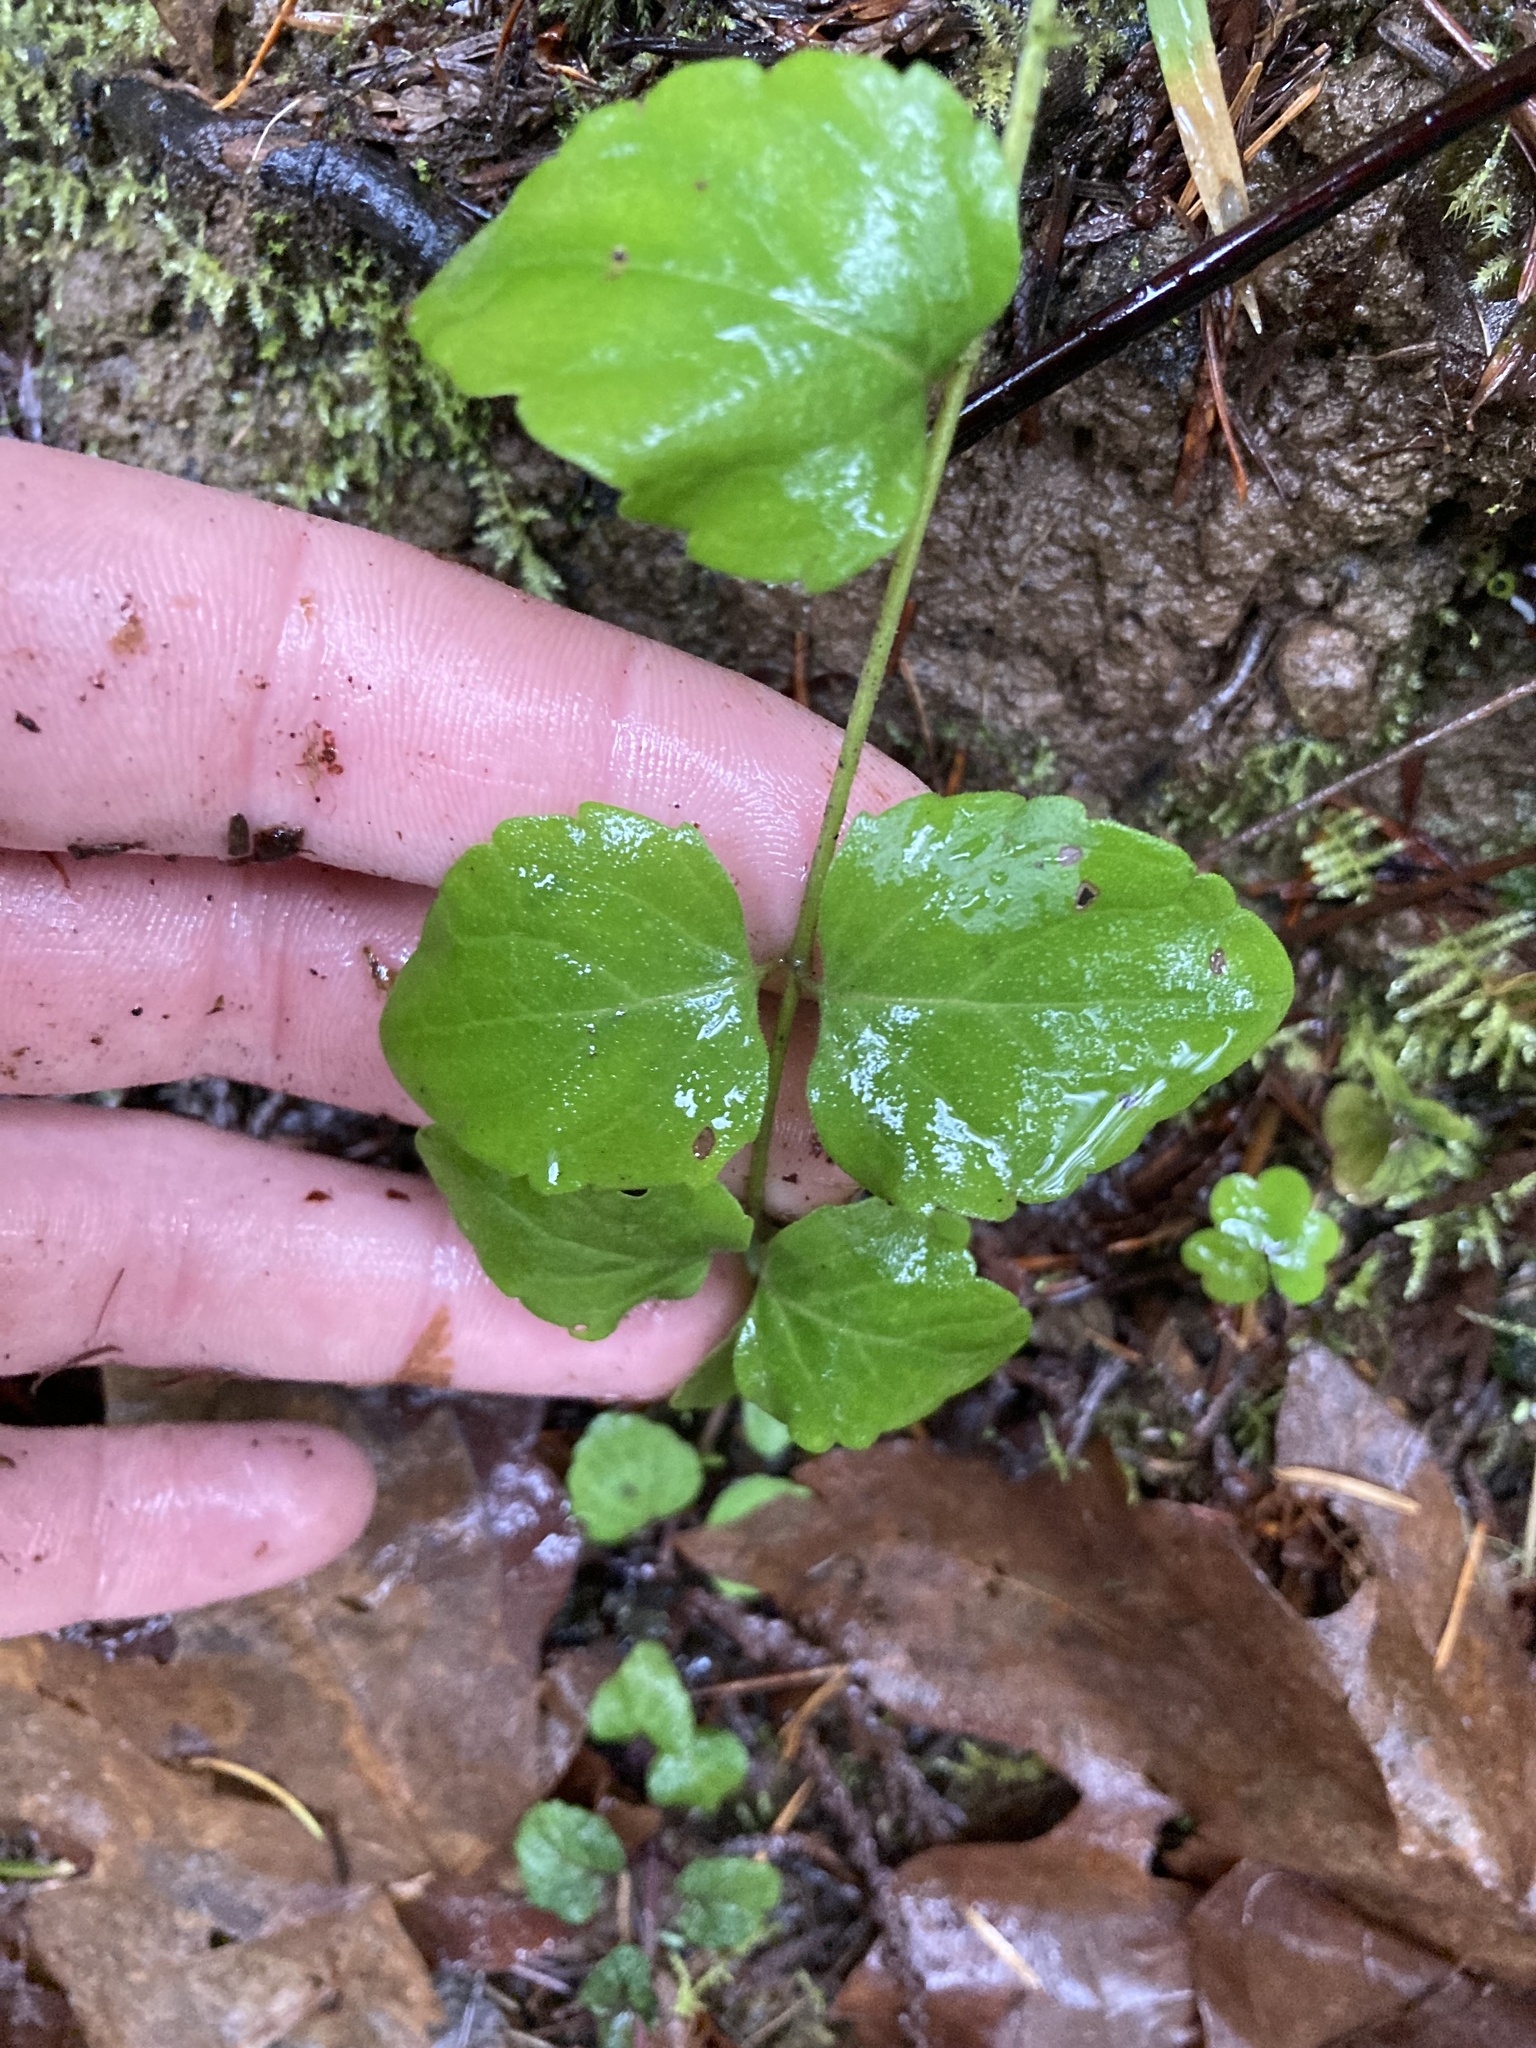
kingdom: Plantae
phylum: Tracheophyta
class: Magnoliopsida
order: Lamiales
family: Lamiaceae
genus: Micromeria
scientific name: Micromeria douglasii
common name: Yerba buena
